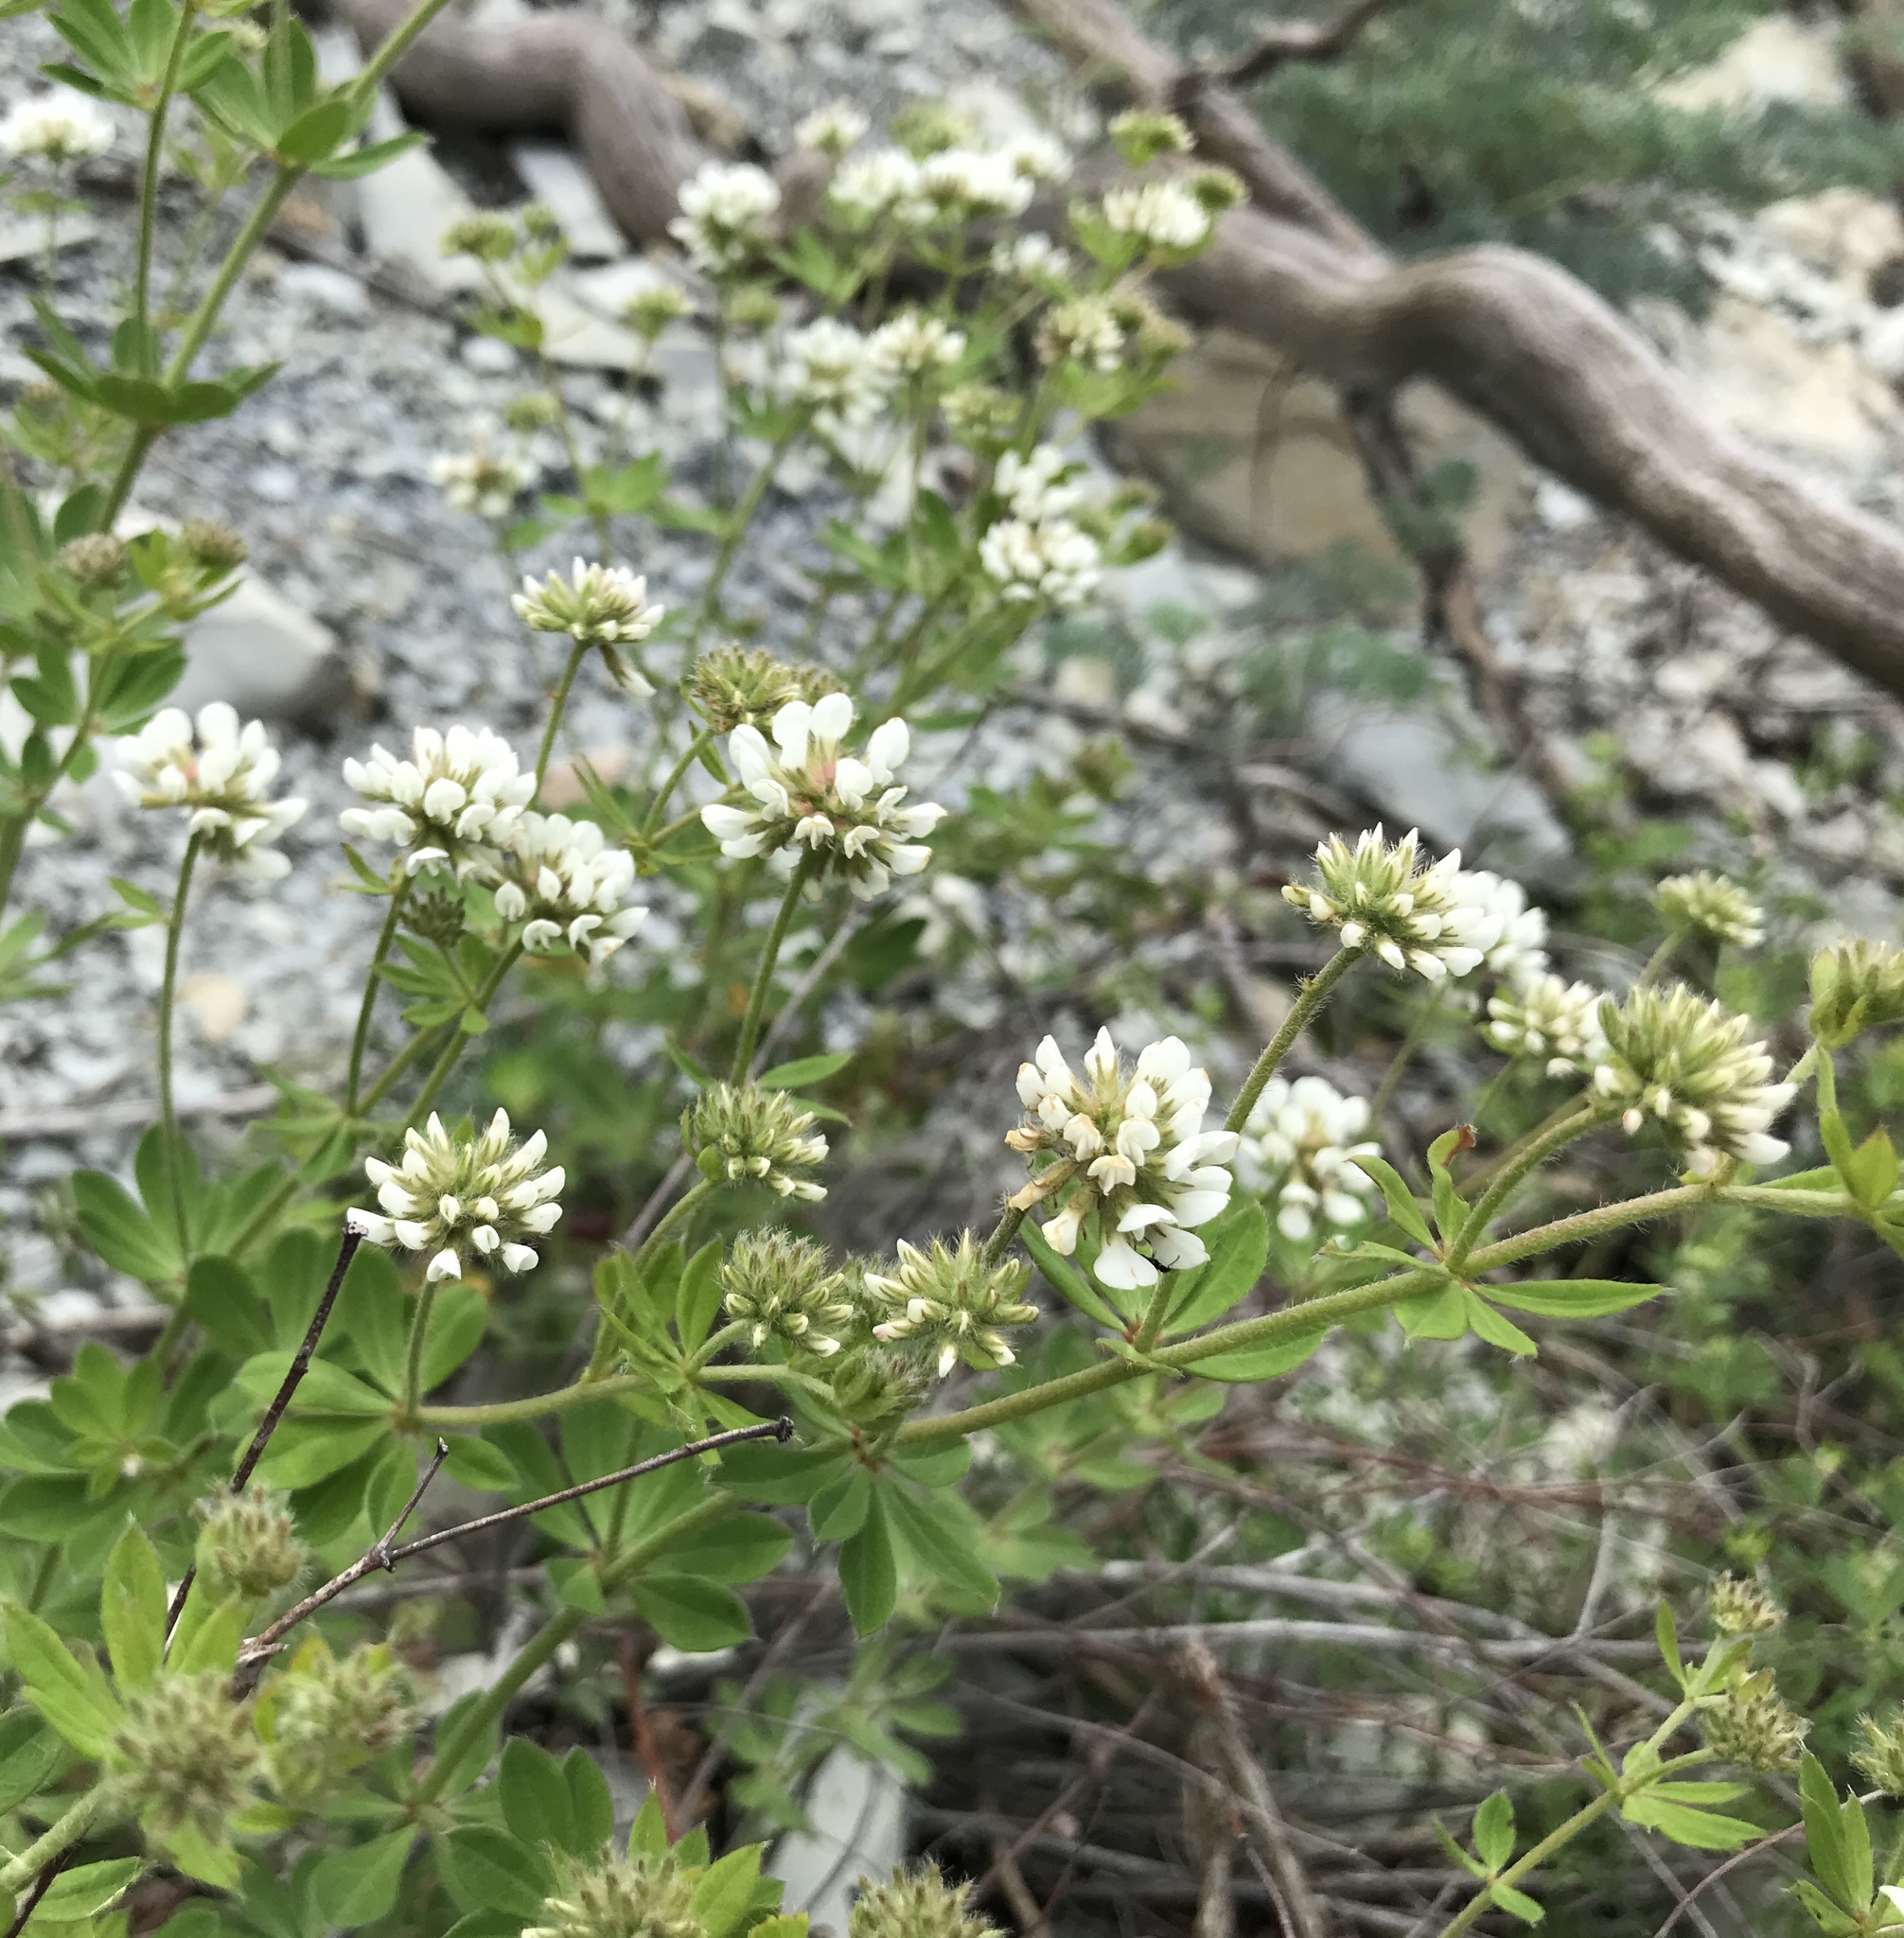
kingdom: Plantae
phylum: Tracheophyta
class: Magnoliopsida
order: Fabales
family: Fabaceae
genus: Lotus
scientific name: Lotus herbaceus
